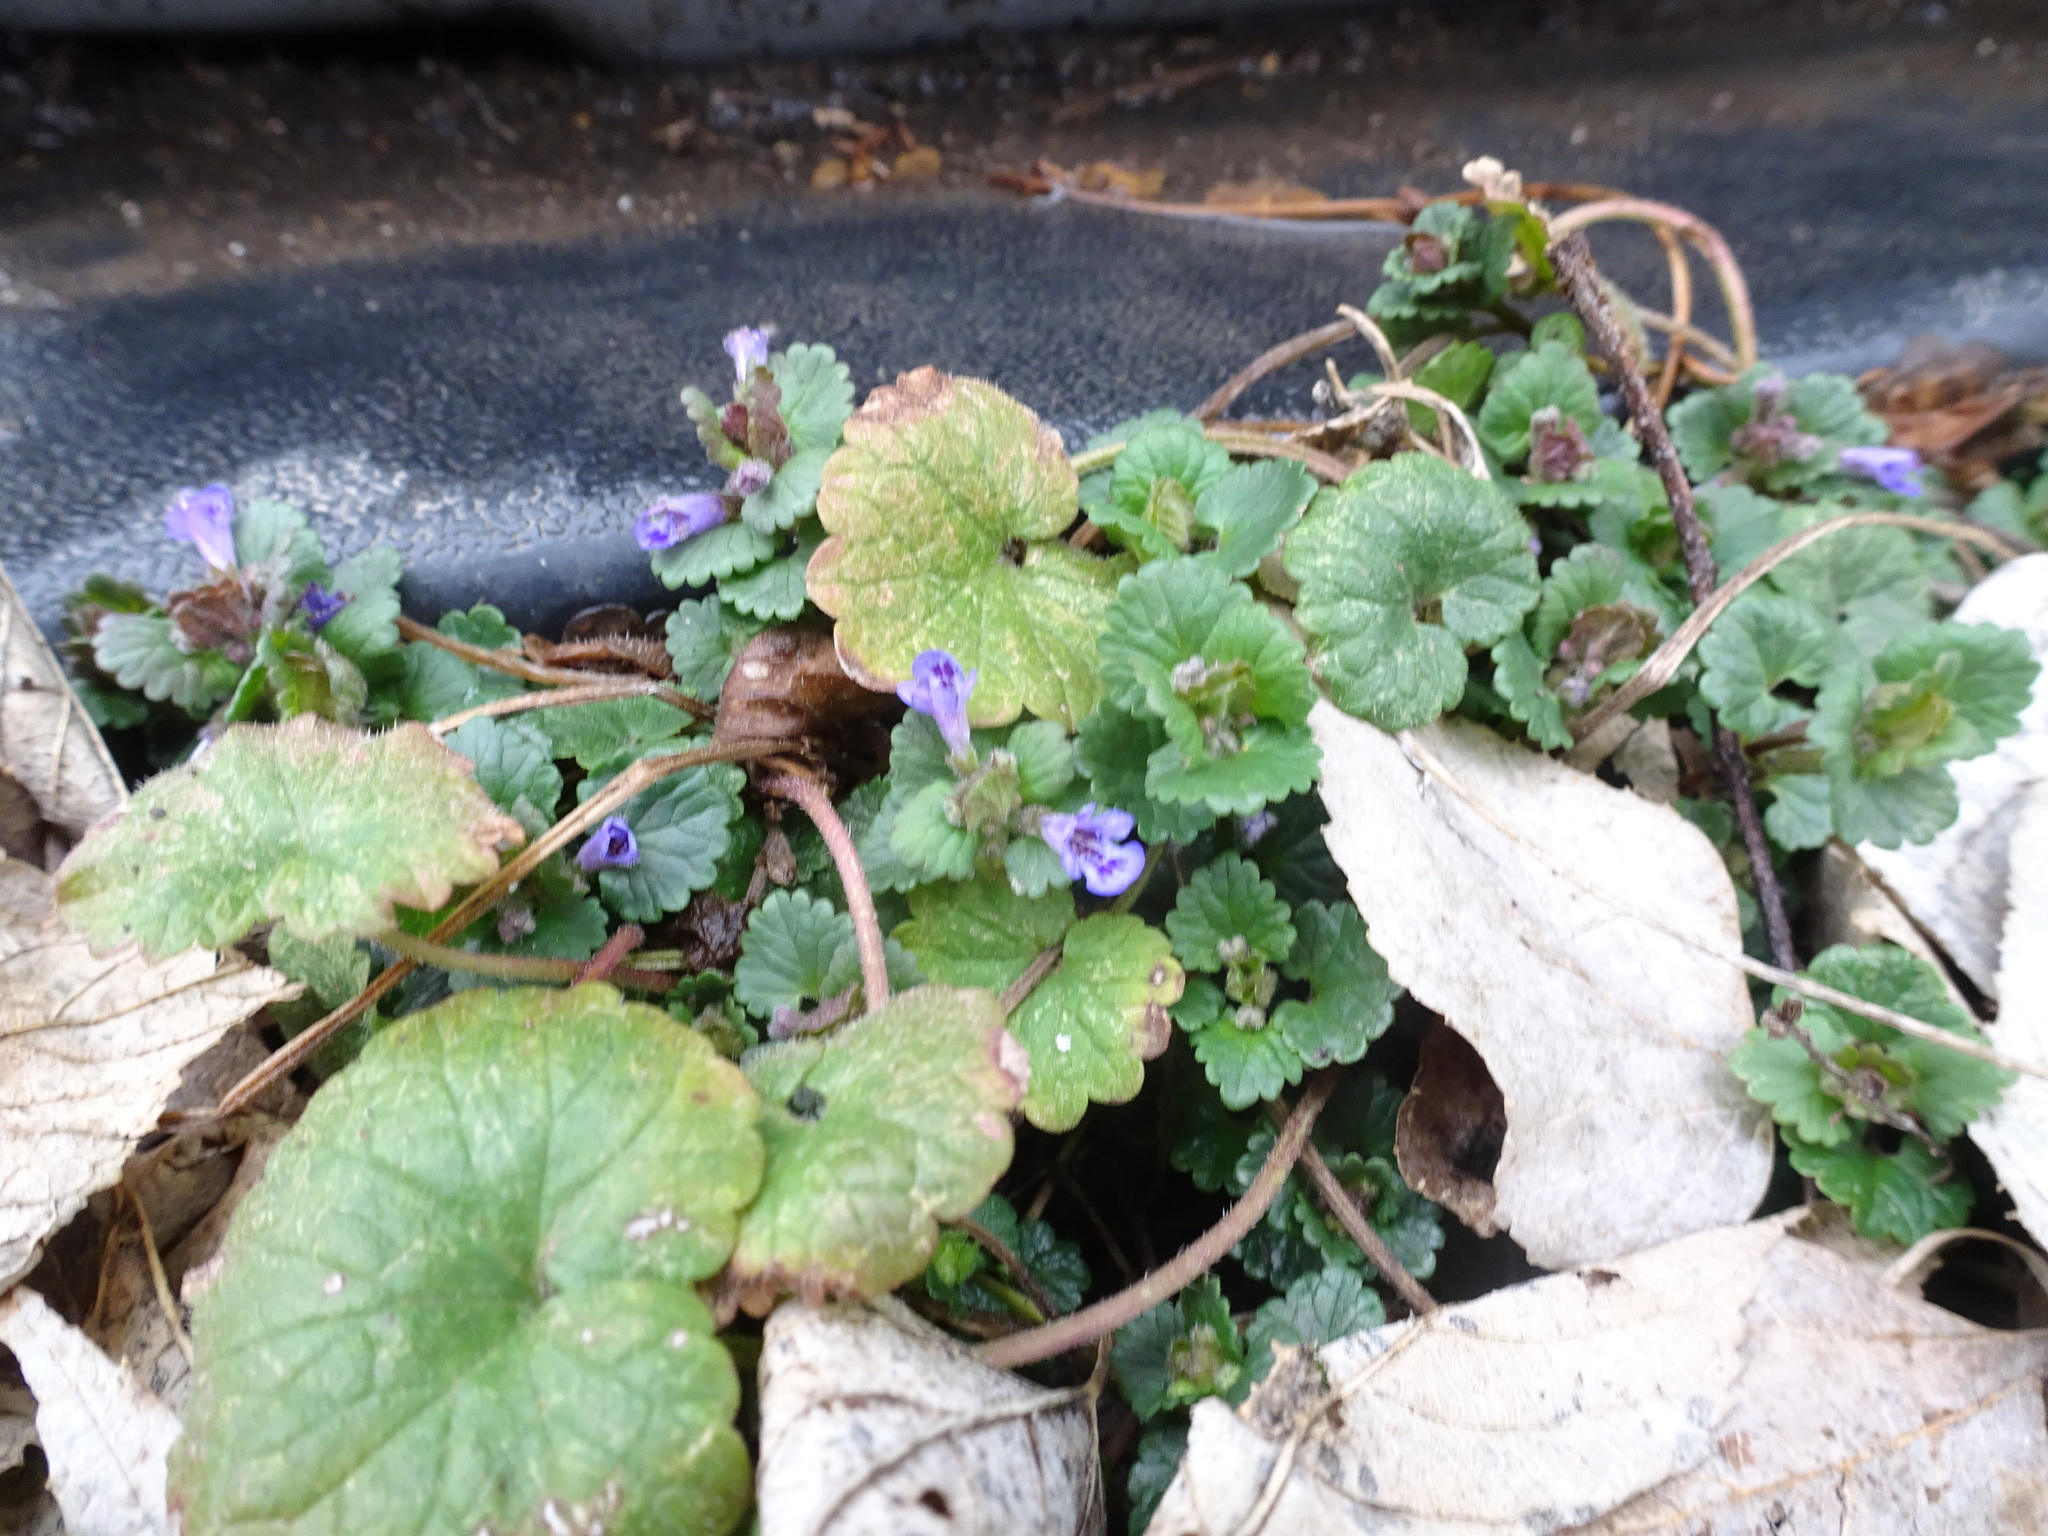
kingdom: Plantae
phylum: Tracheophyta
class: Magnoliopsida
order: Lamiales
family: Lamiaceae
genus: Glechoma
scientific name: Glechoma hederacea
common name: Ground ivy
